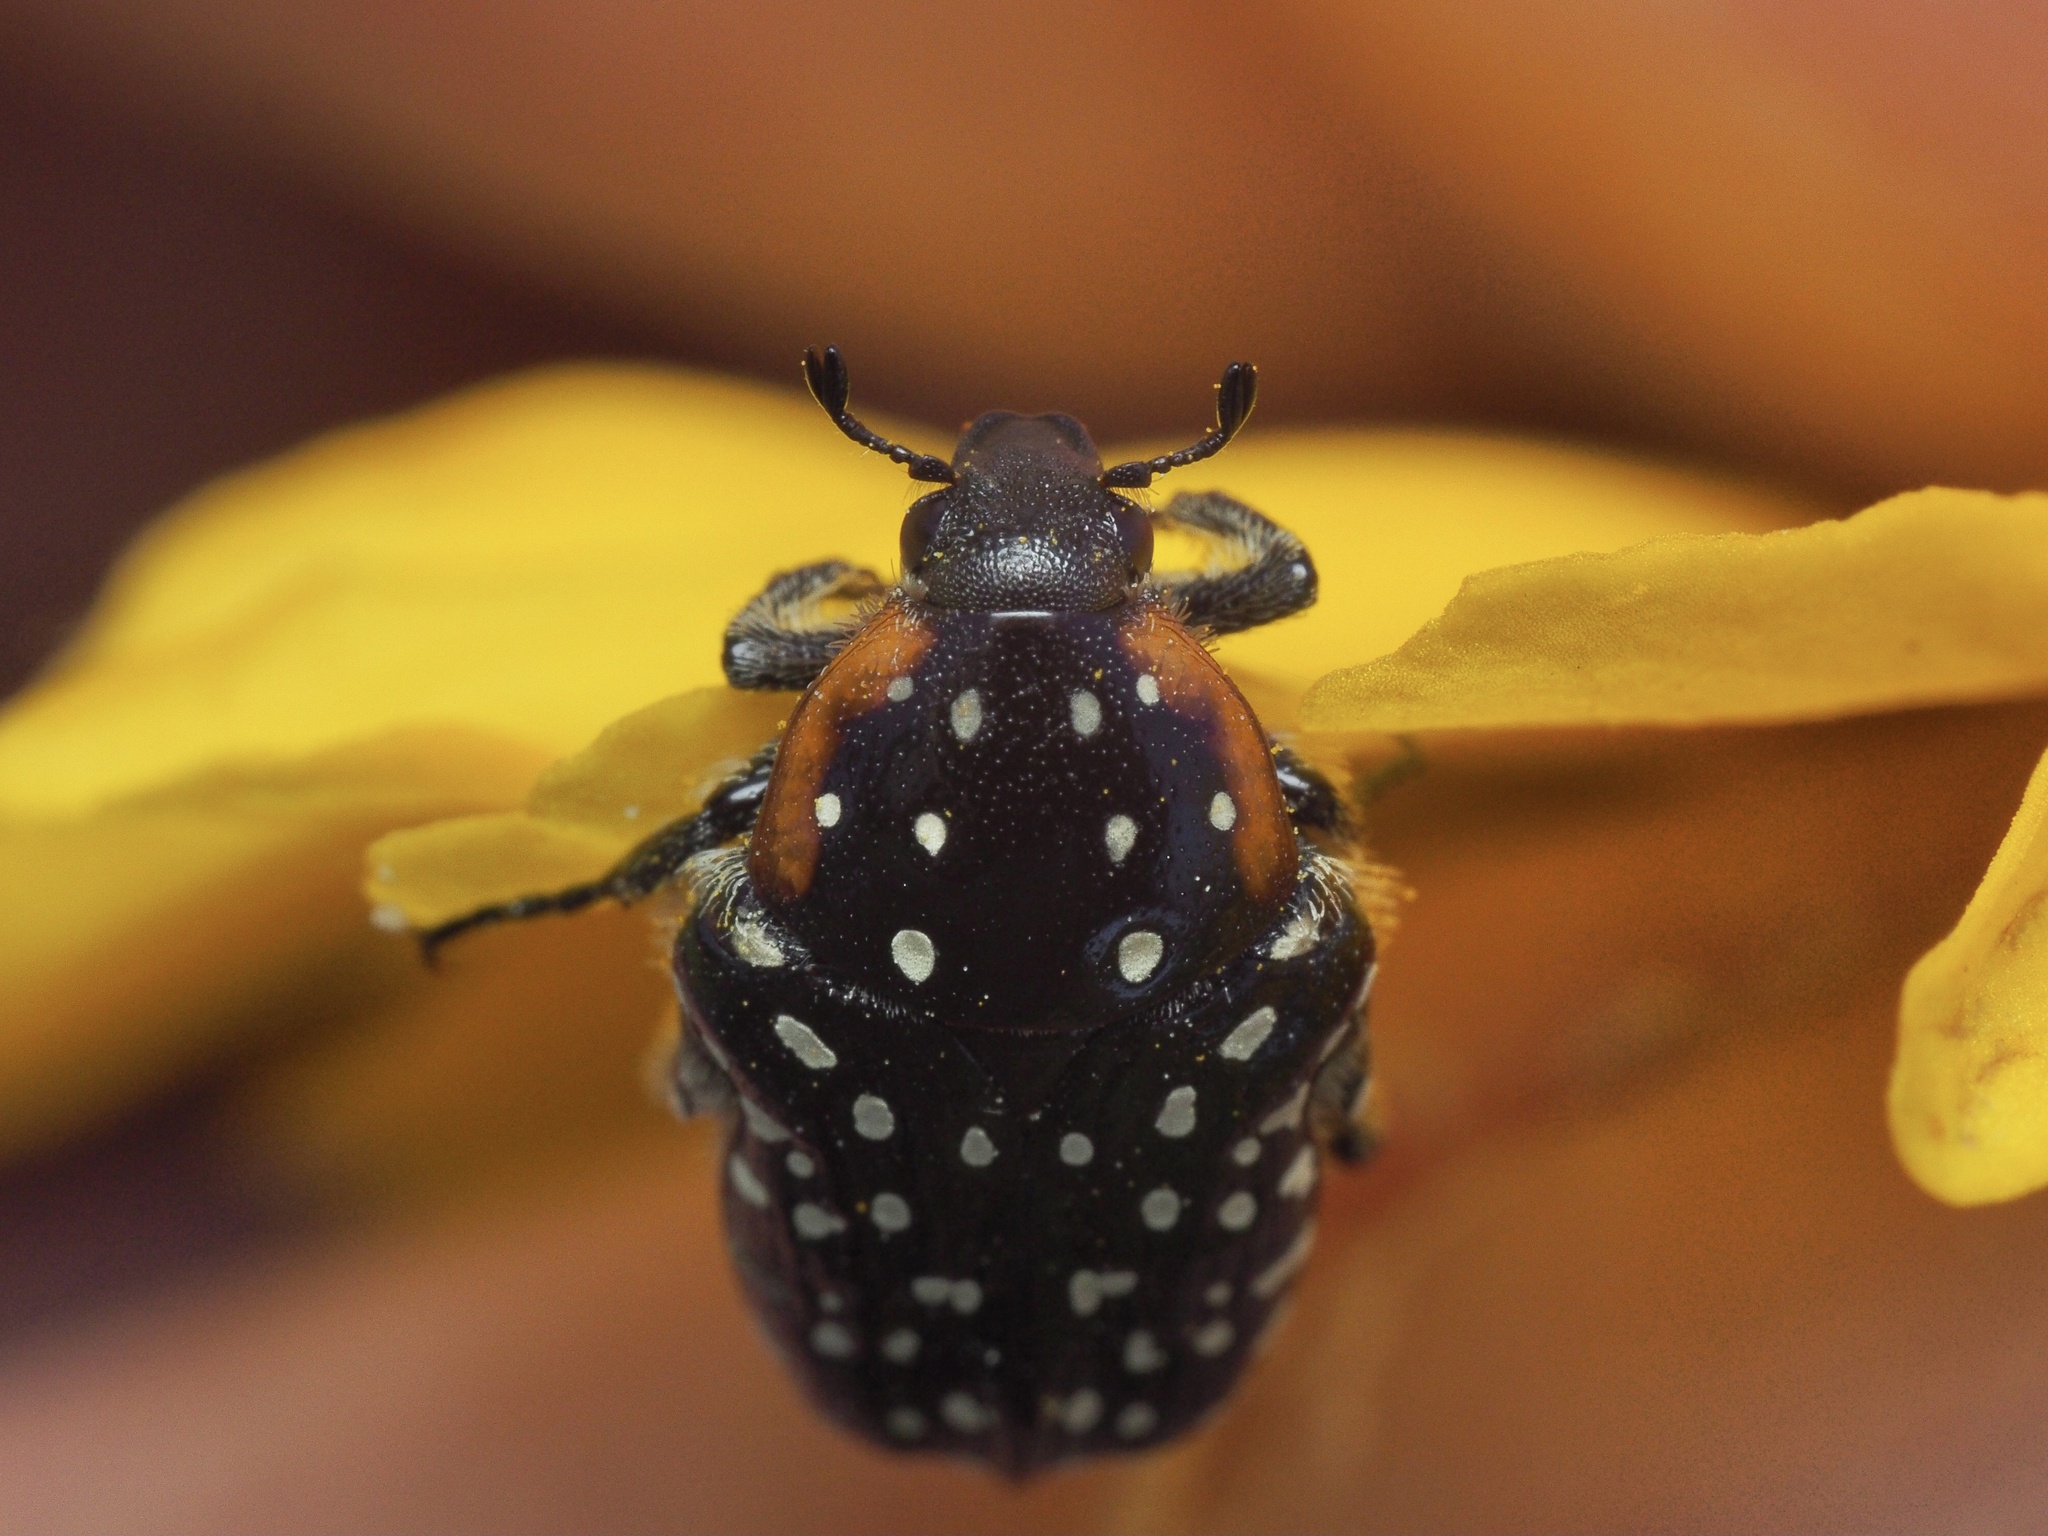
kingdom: Animalia
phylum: Arthropoda
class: Insecta
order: Coleoptera
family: Scarabaeidae
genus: Oxythyrea
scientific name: Oxythyrea
